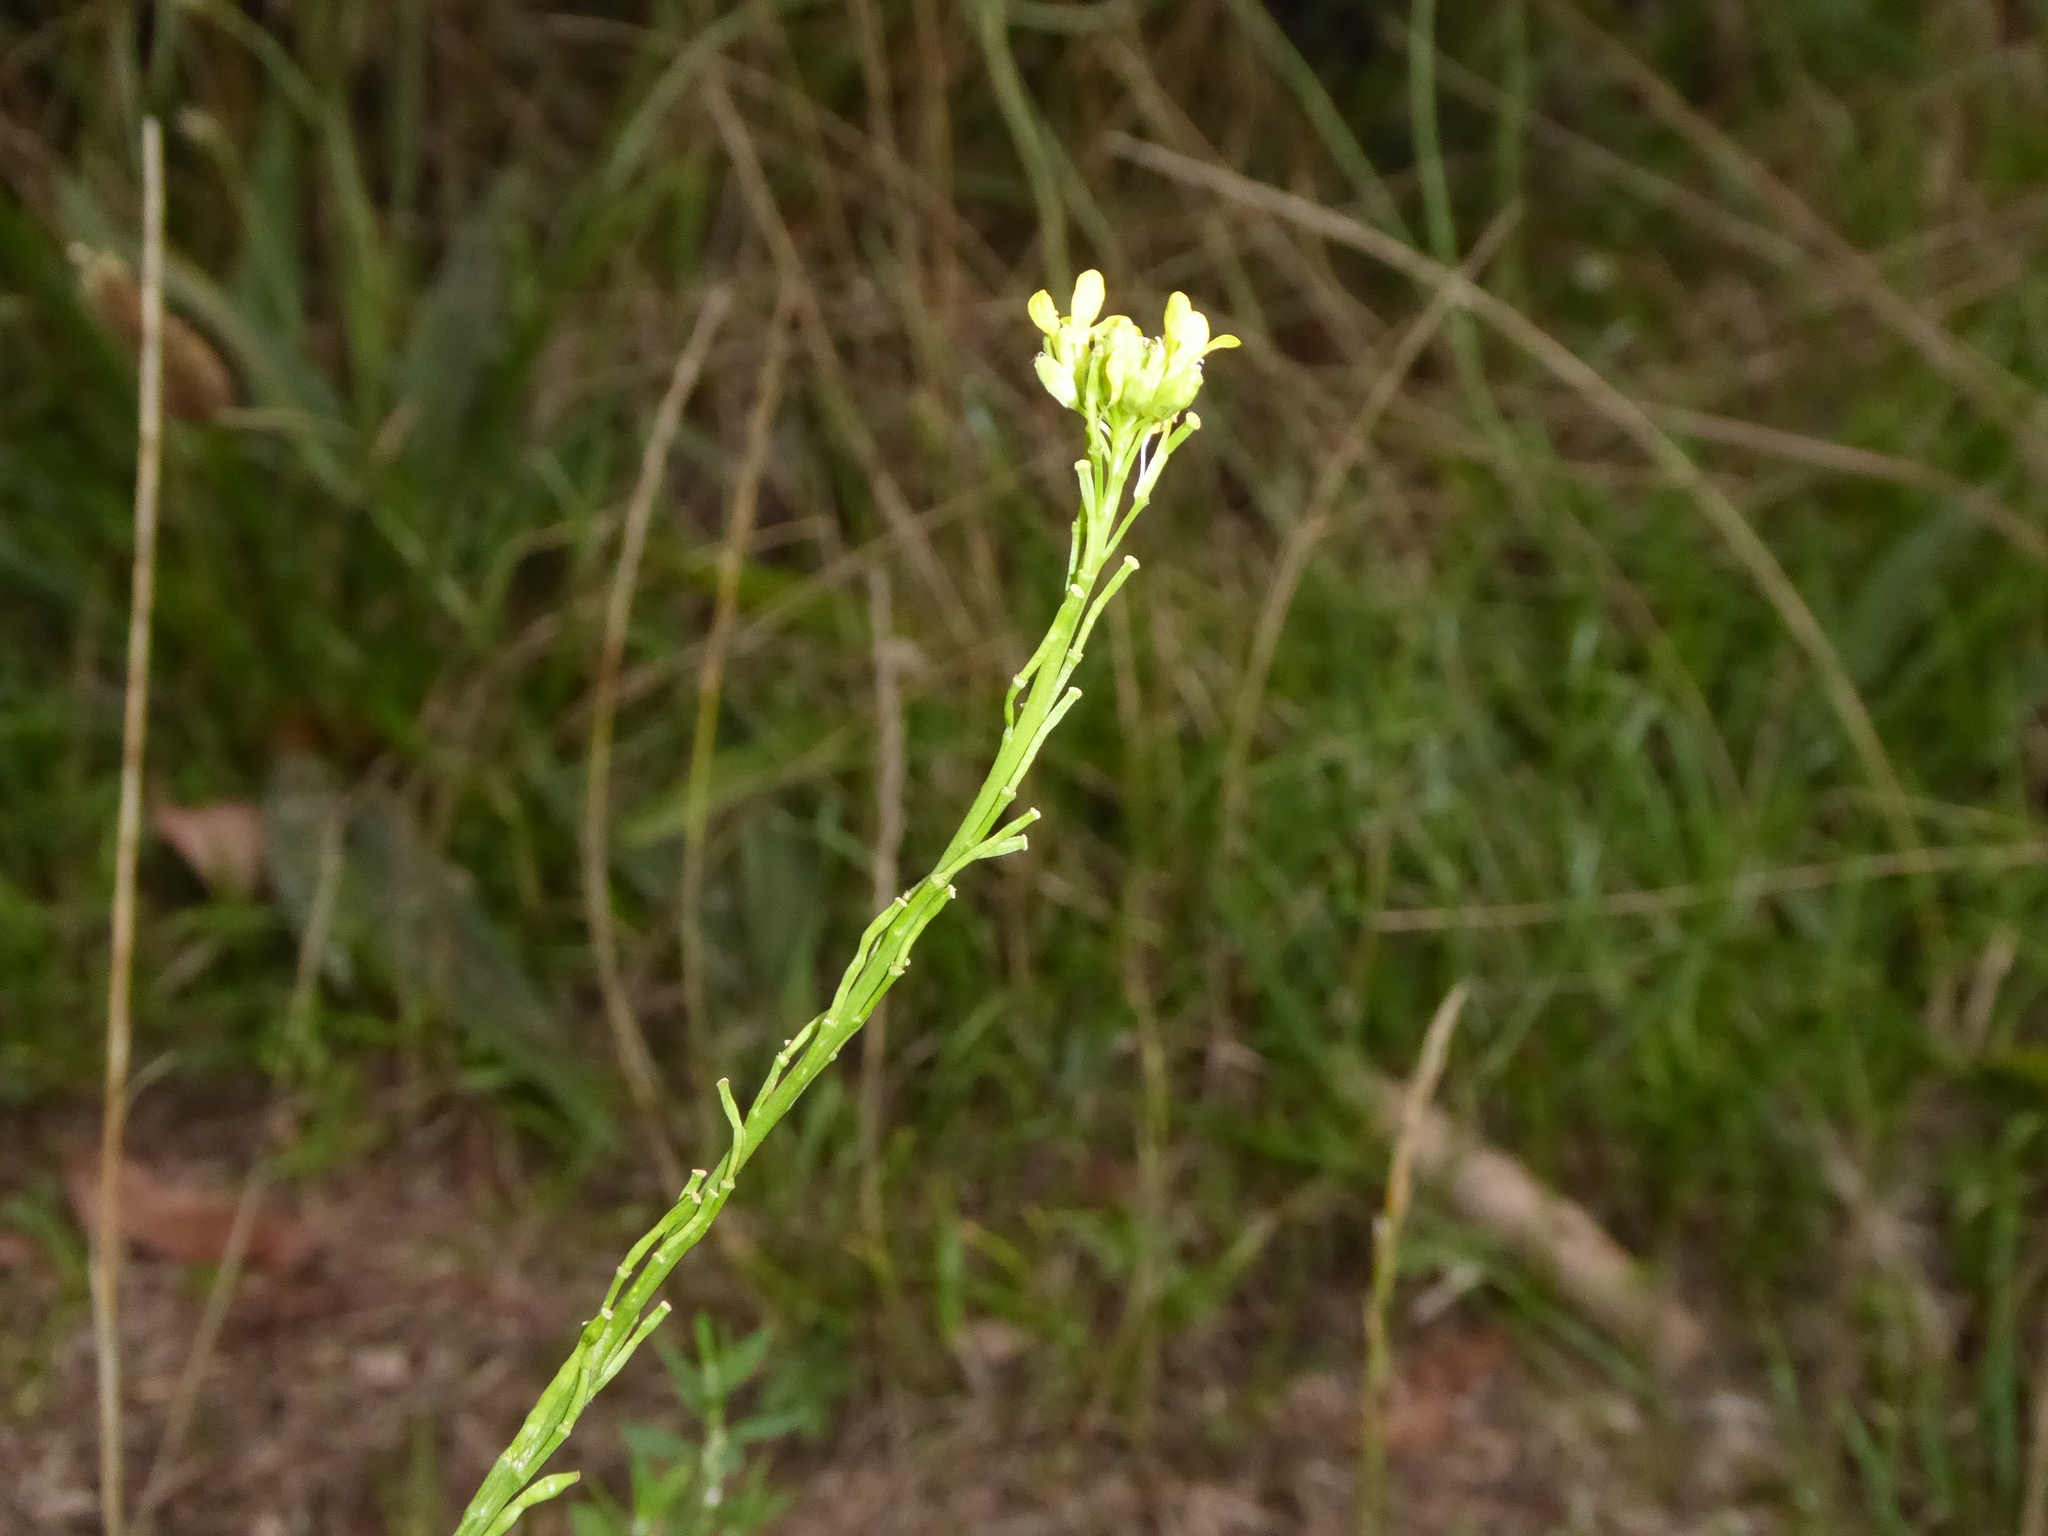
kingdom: Plantae
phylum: Tracheophyta
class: Magnoliopsida
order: Brassicales
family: Brassicaceae
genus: Hirschfeldia
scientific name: Hirschfeldia incana
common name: Hoary mustard
